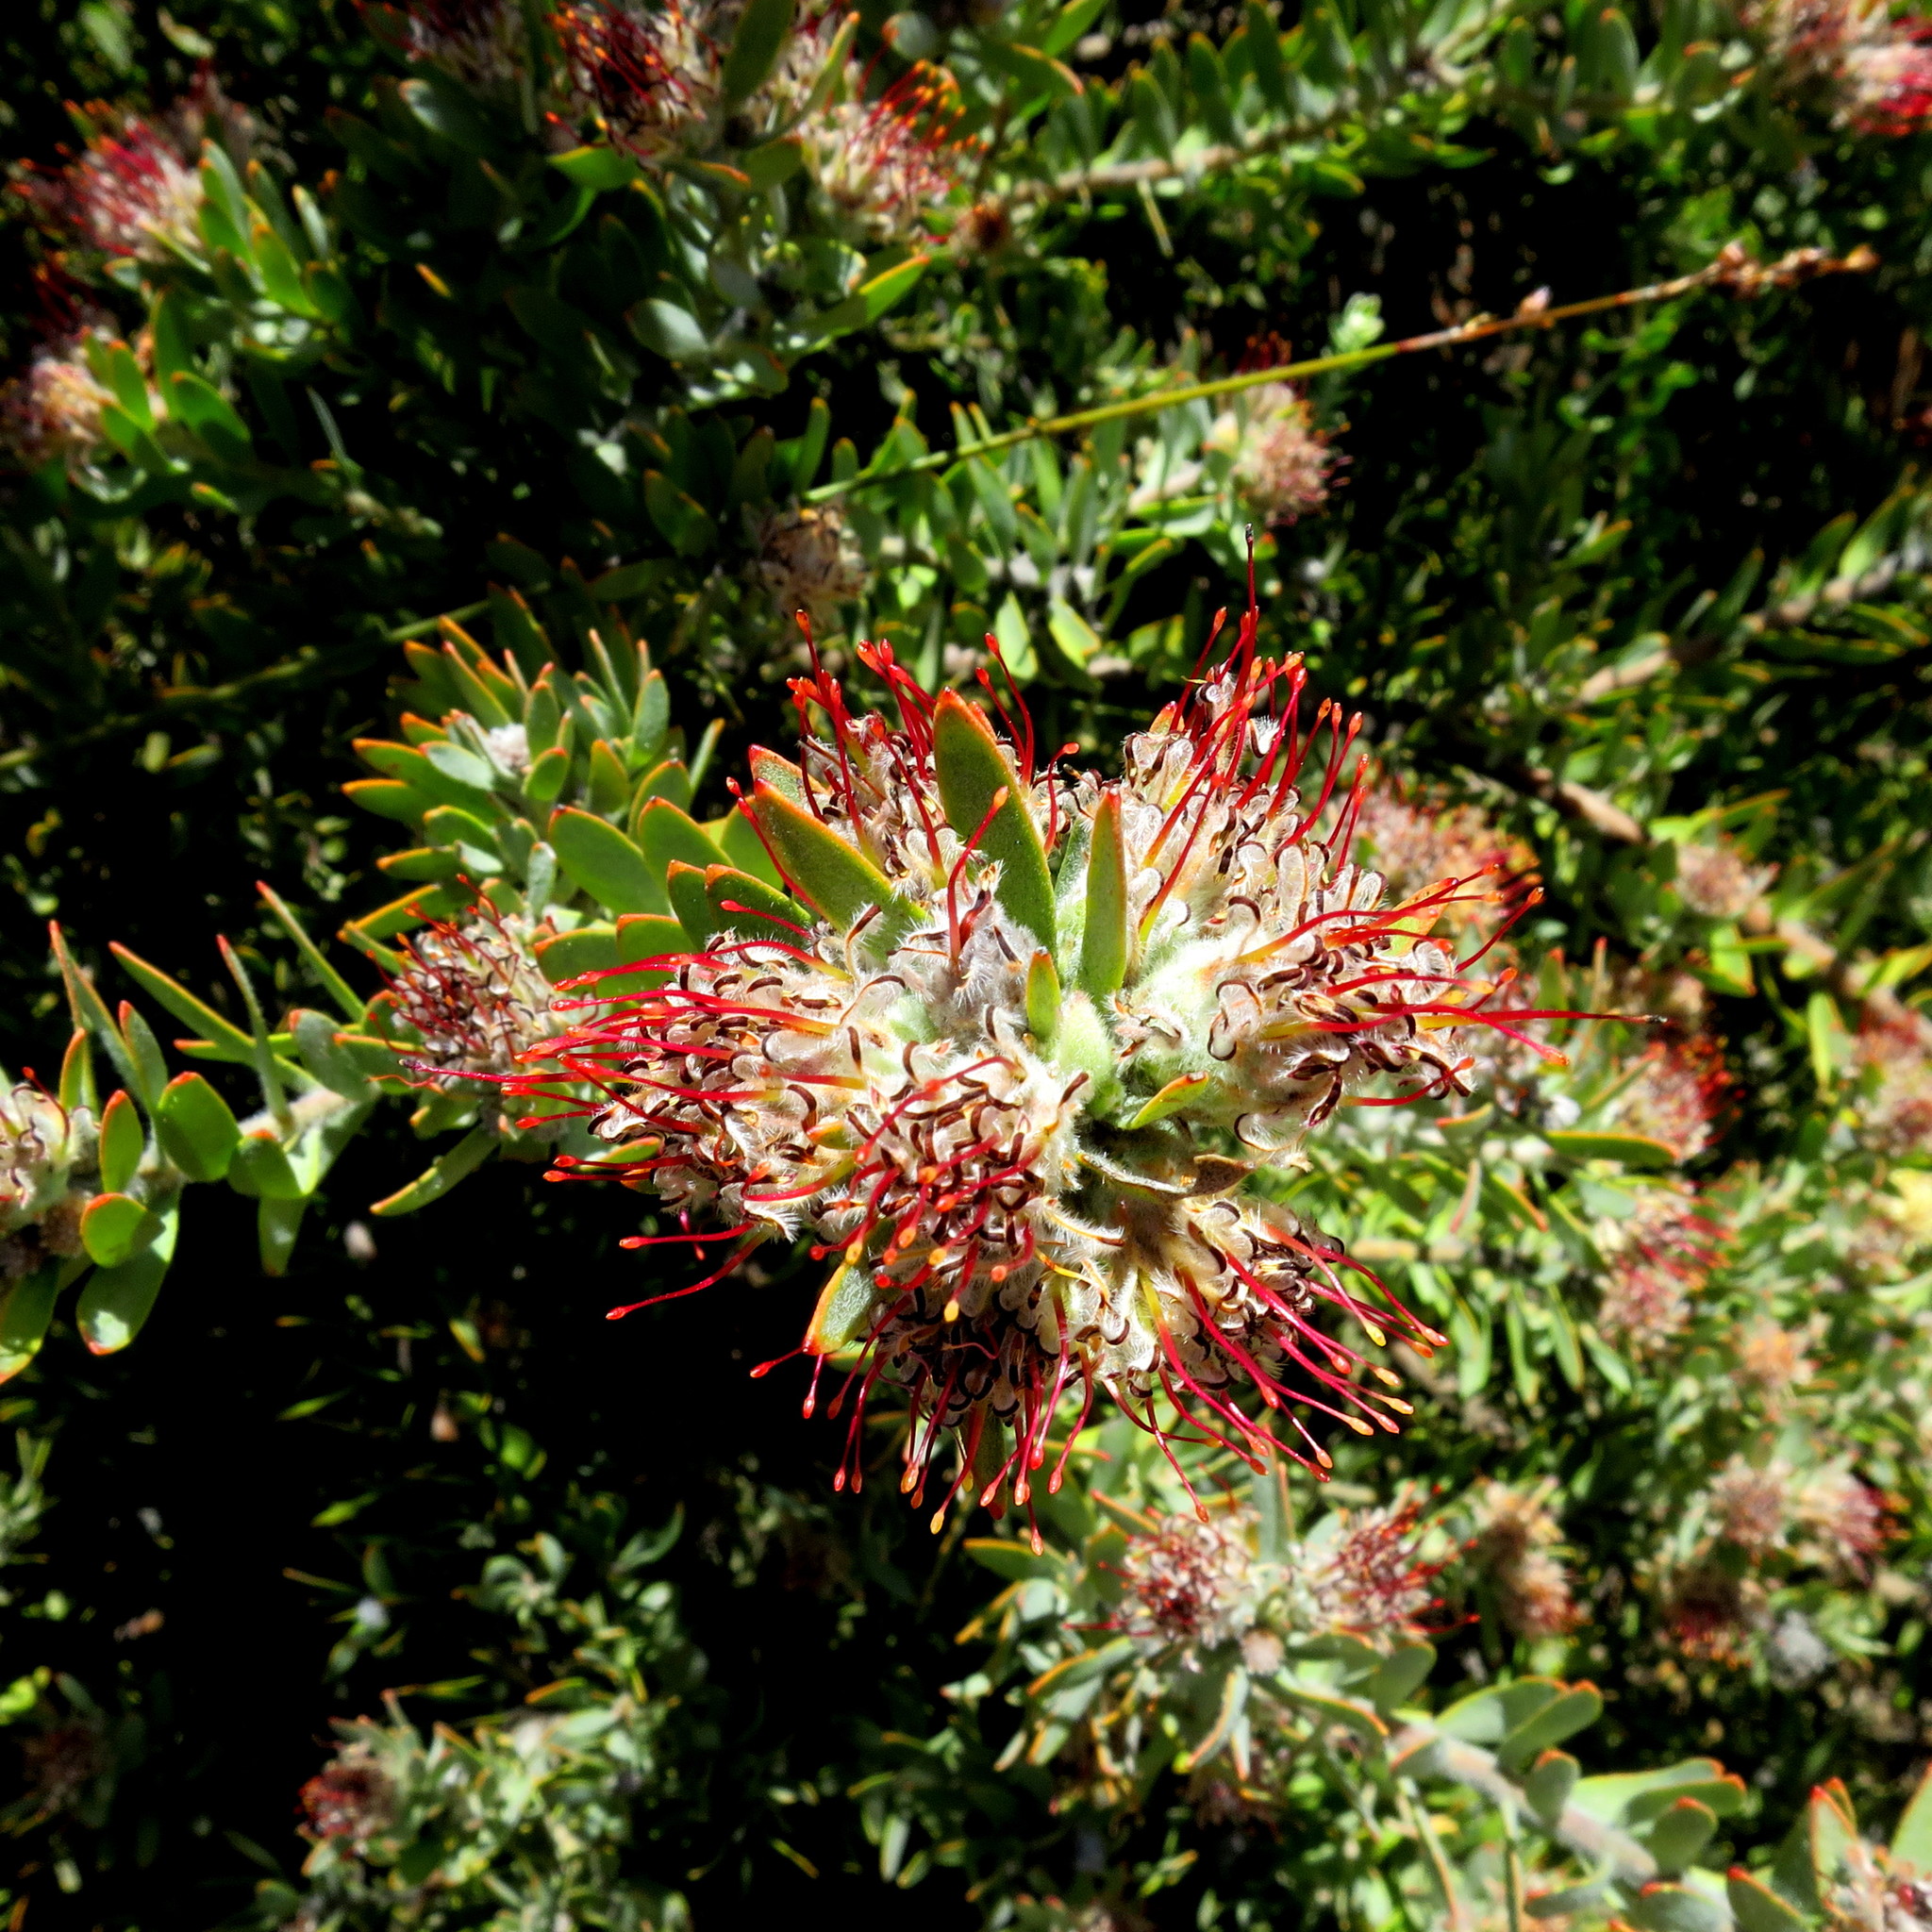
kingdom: Plantae
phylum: Tracheophyta
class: Magnoliopsida
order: Proteales
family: Proteaceae
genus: Leucospermum
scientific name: Leucospermum royenifolium
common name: Eastern pincushion
